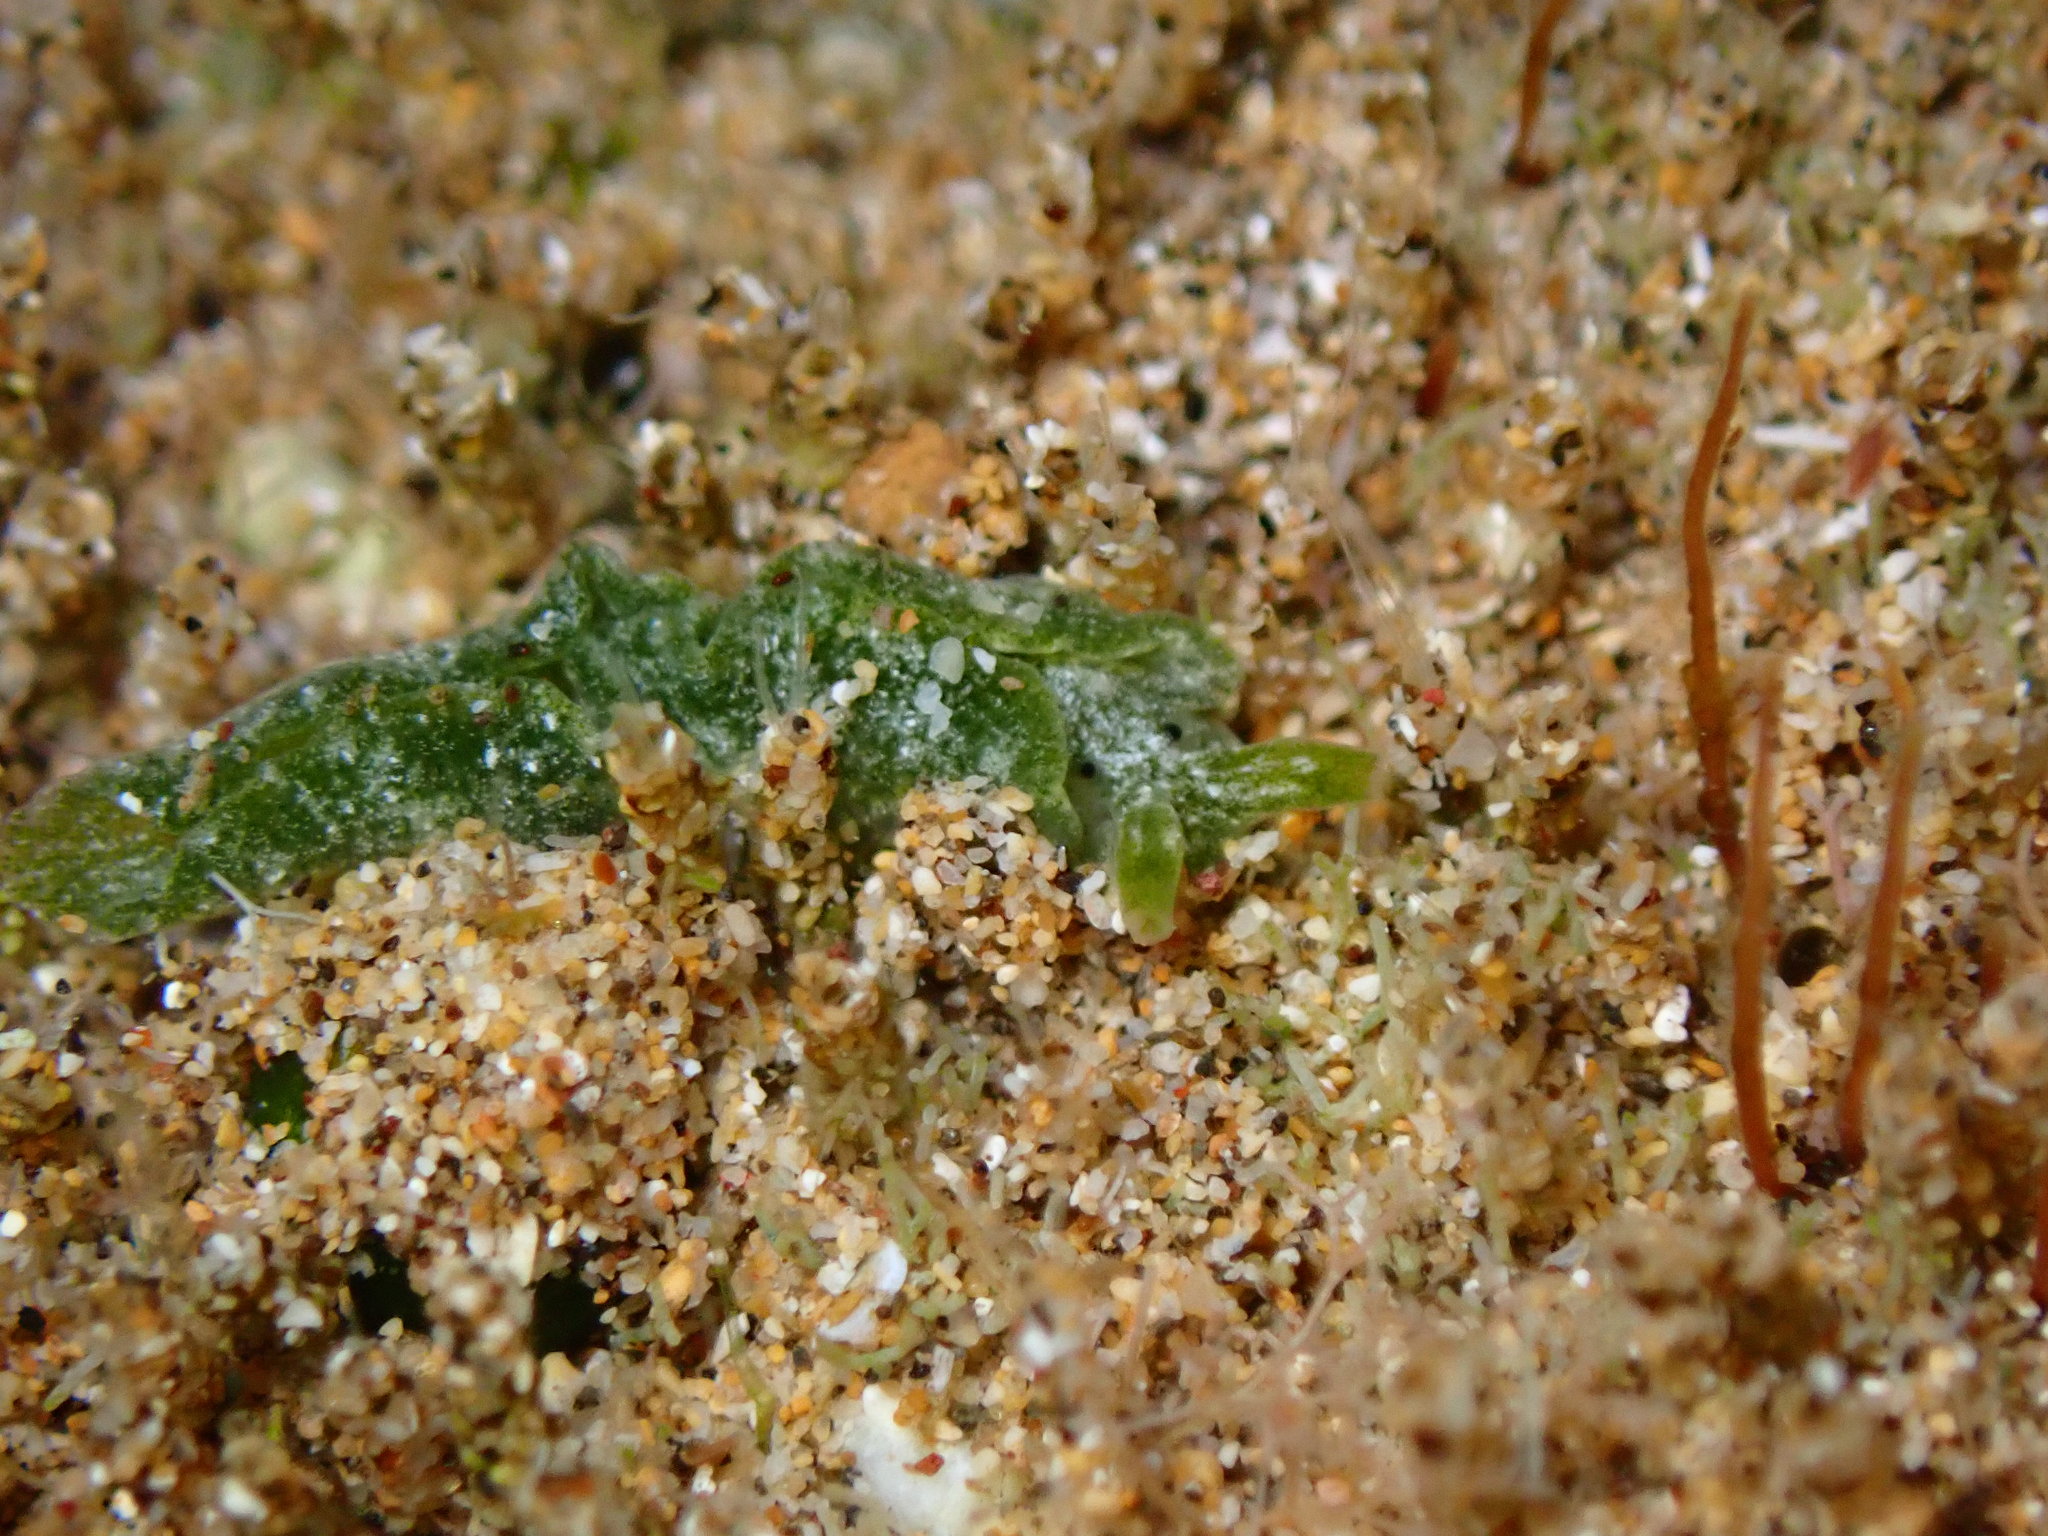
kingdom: Animalia
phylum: Mollusca
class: Gastropoda
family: Plakobranchidae
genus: Elysia
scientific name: Elysia nealae
